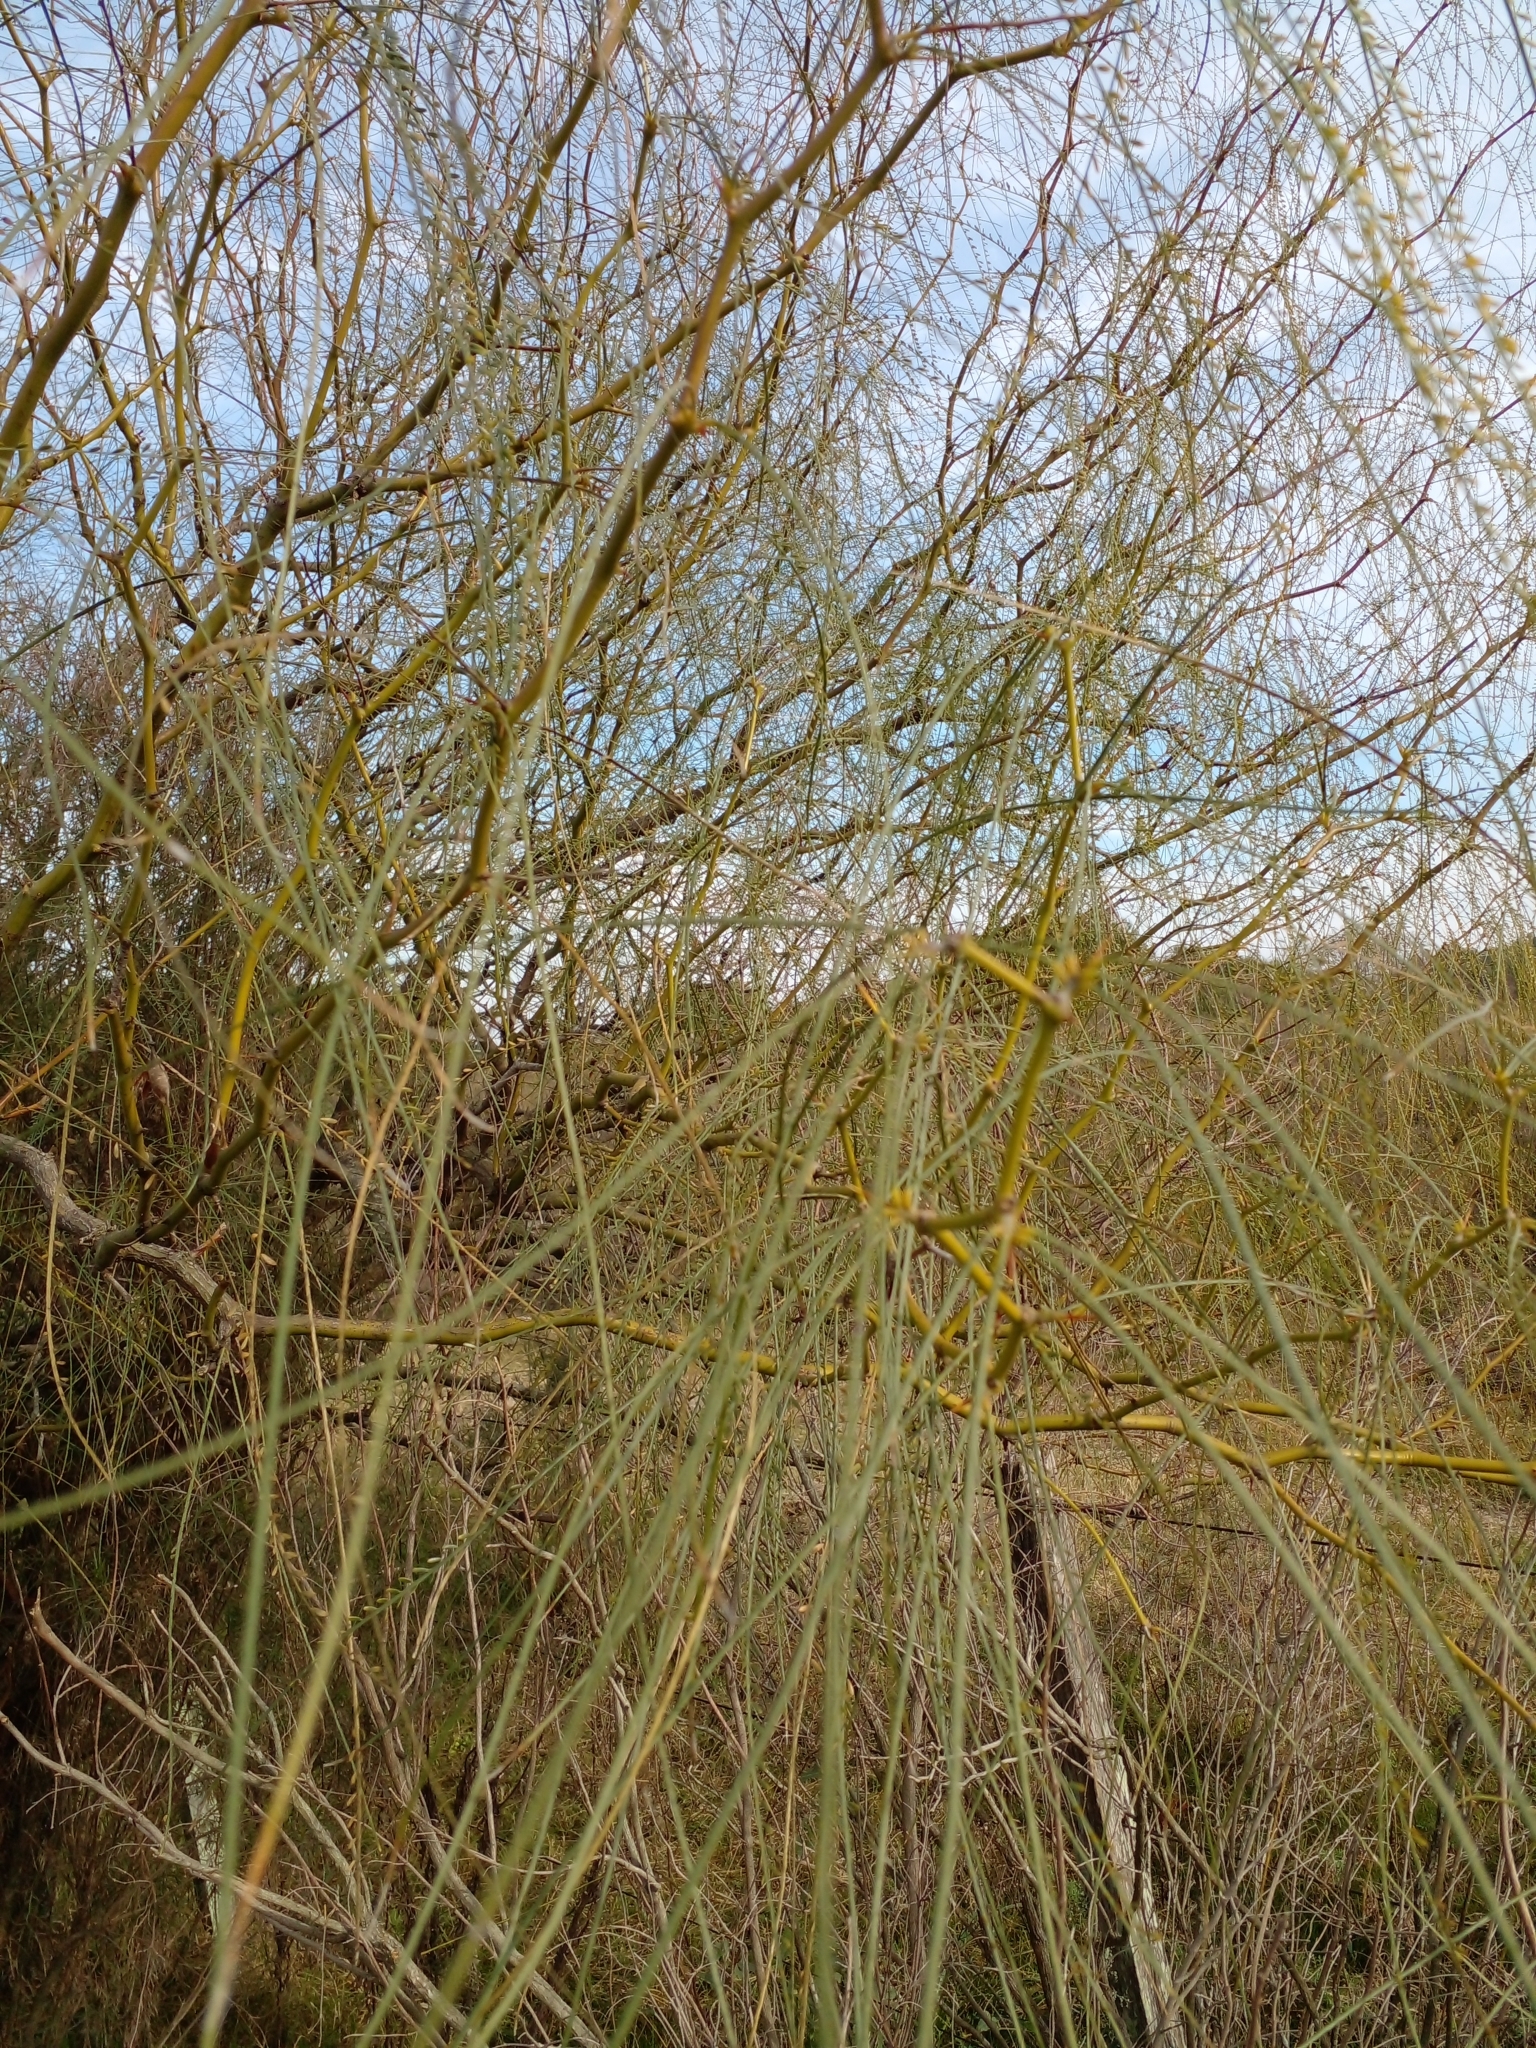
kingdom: Plantae
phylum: Tracheophyta
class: Magnoliopsida
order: Fabales
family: Fabaceae
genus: Parkinsonia
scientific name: Parkinsonia aculeata
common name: Jerusalem thorn
